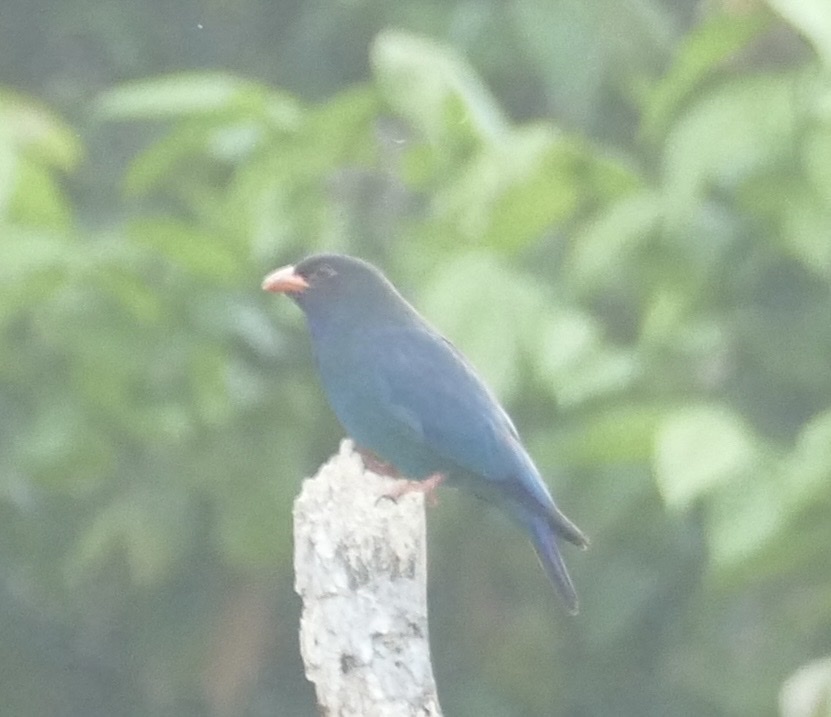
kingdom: Animalia
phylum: Chordata
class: Aves
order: Coraciiformes
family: Coraciidae
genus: Eurystomus
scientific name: Eurystomus orientalis
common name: Oriental dollarbird
